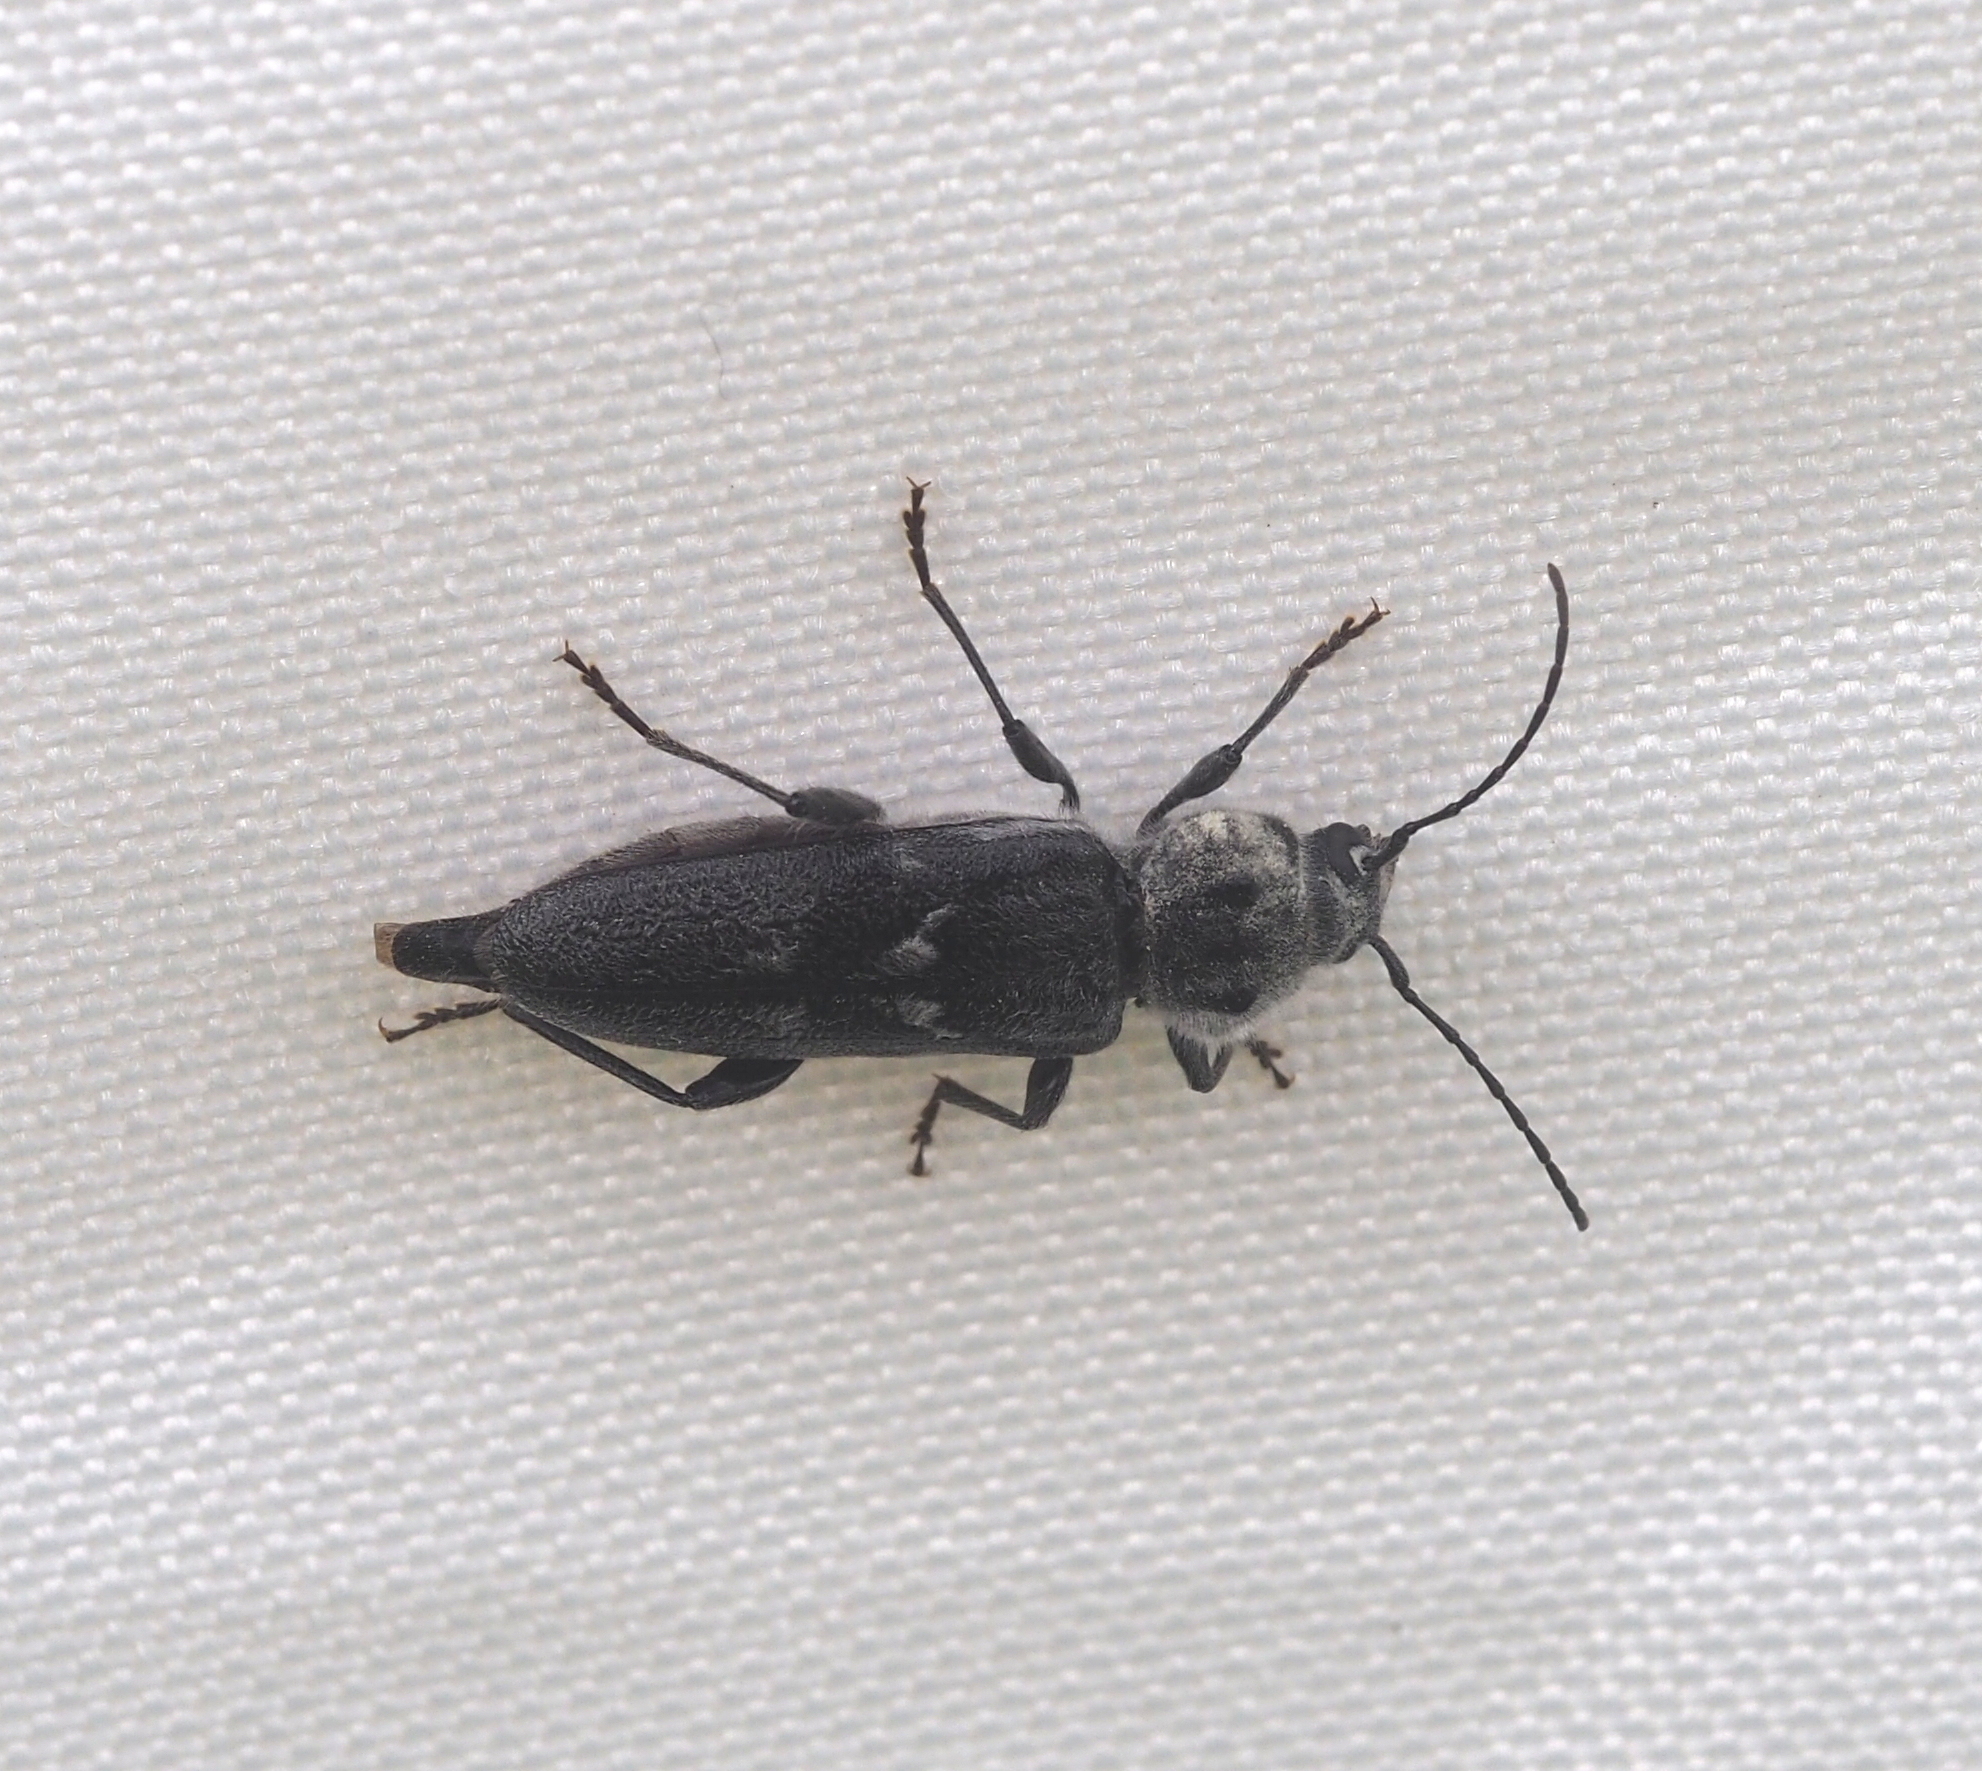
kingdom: Animalia
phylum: Arthropoda
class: Insecta
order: Coleoptera
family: Cerambycidae
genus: Hylotrupes
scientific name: Hylotrupes bajulus
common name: Old house borer
